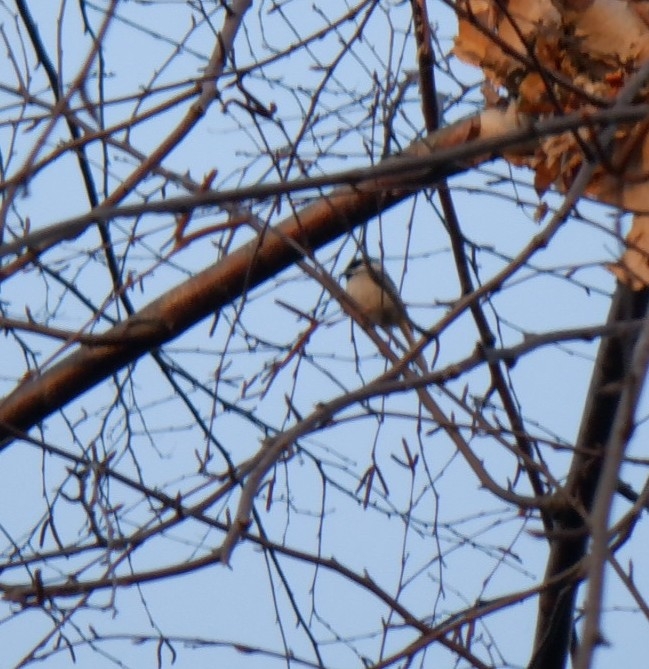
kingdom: Animalia
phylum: Chordata
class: Aves
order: Passeriformes
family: Paridae
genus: Poecile
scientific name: Poecile atricapillus
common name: Black-capped chickadee
